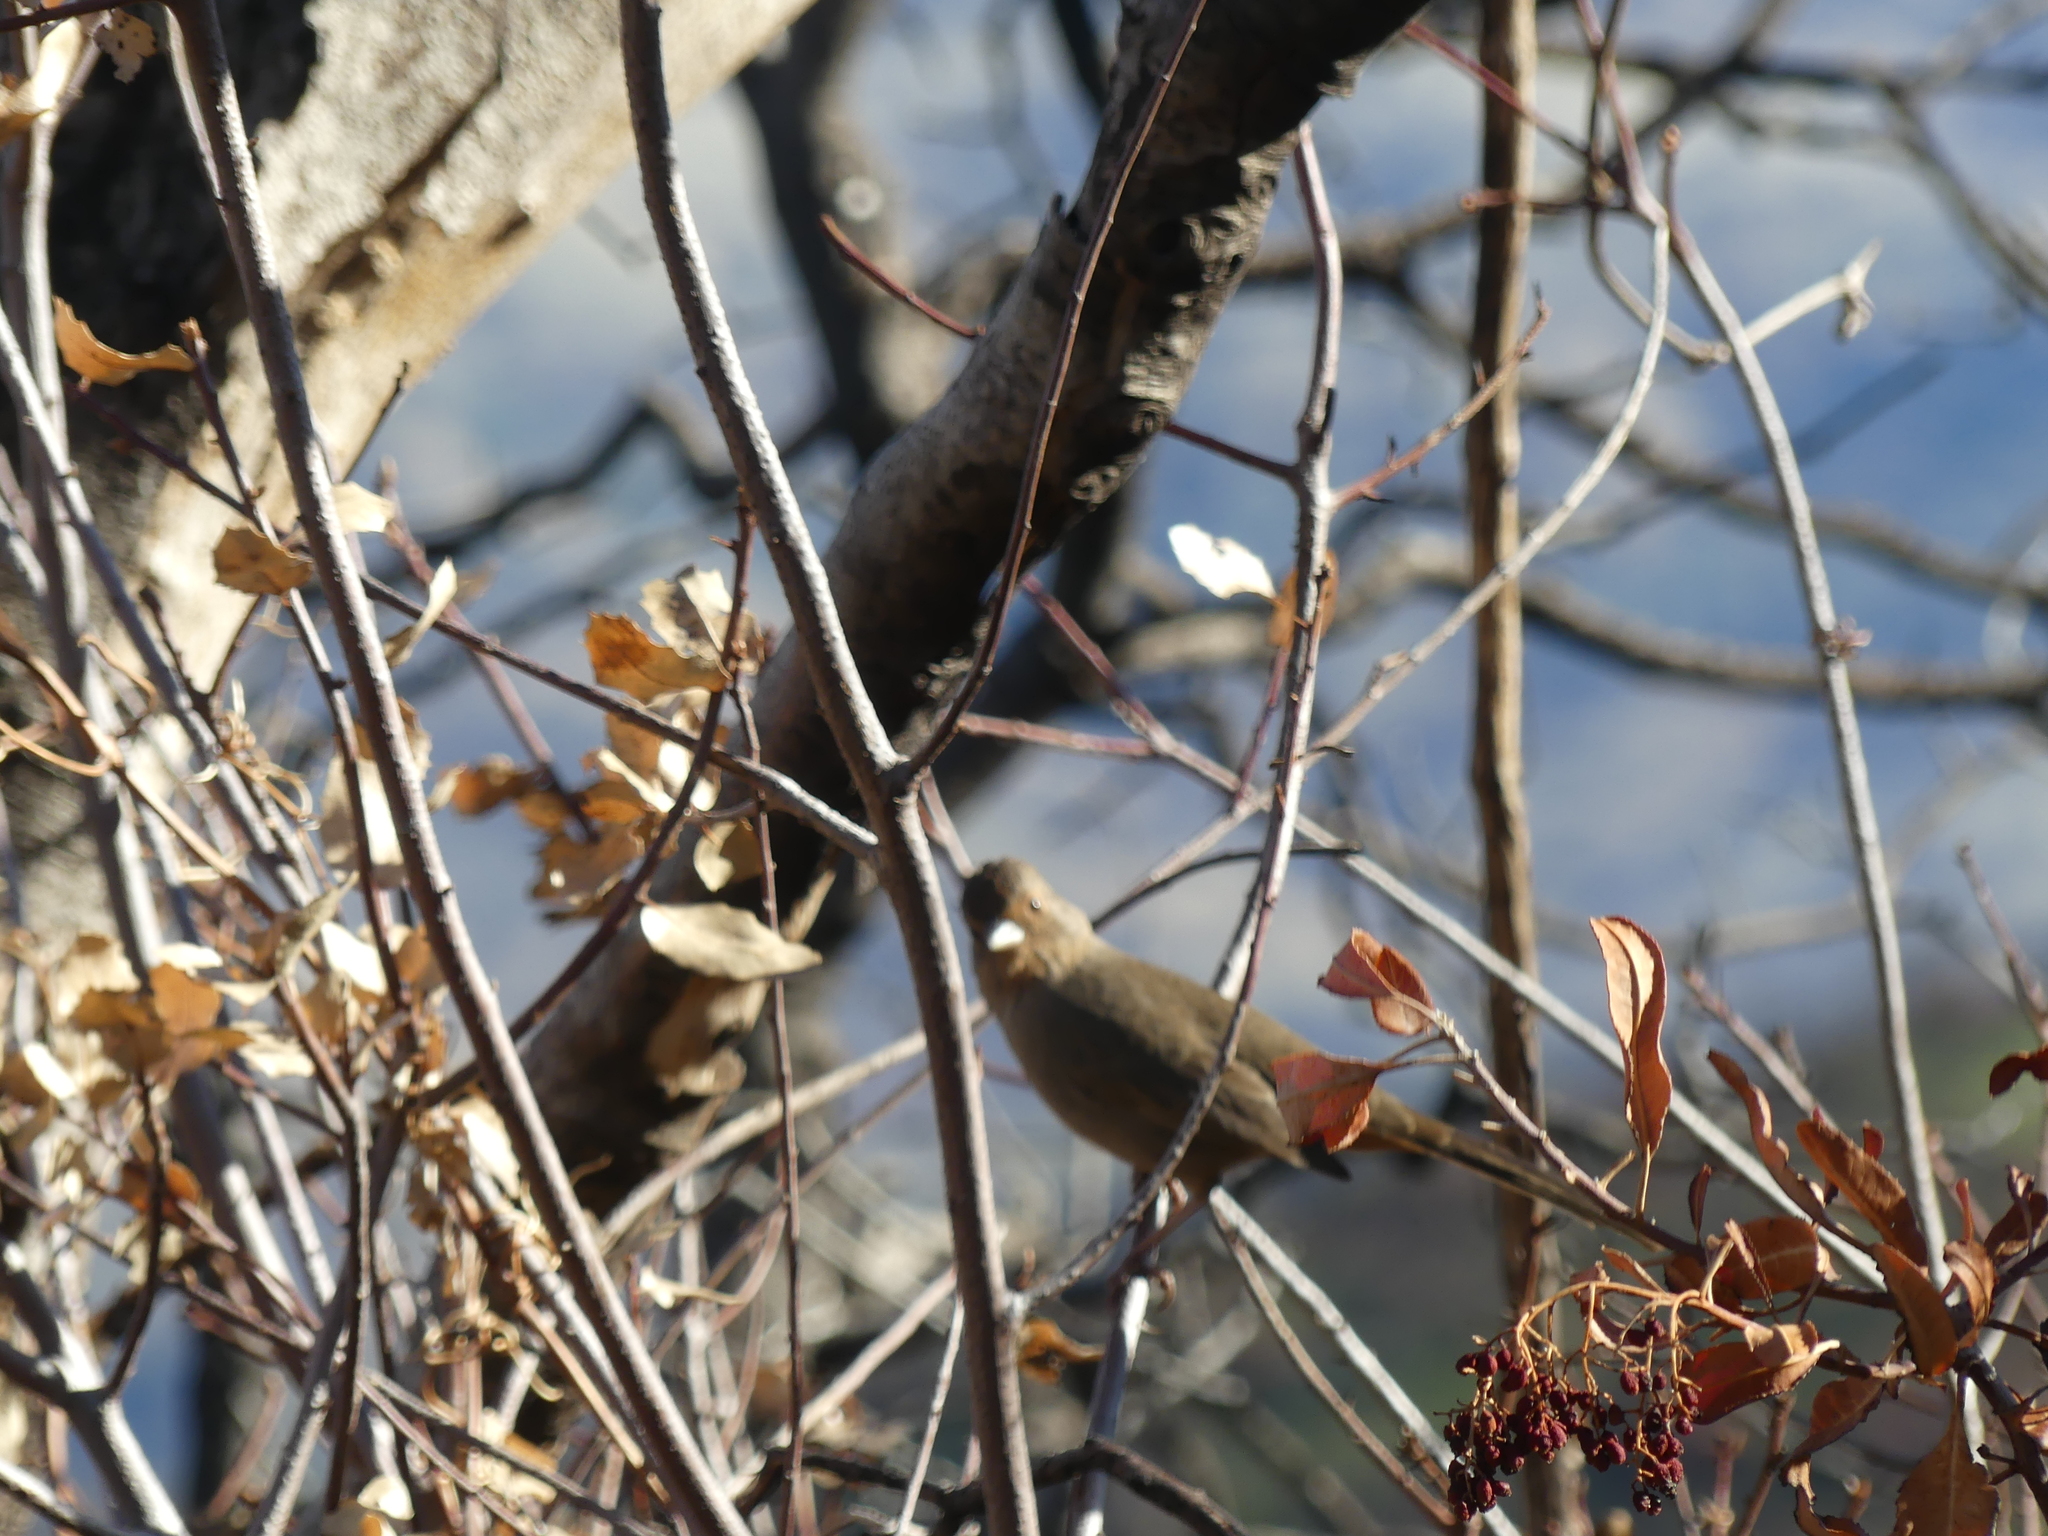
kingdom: Animalia
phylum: Chordata
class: Aves
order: Passeriformes
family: Passerellidae
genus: Melozone
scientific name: Melozone crissalis
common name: California towhee
